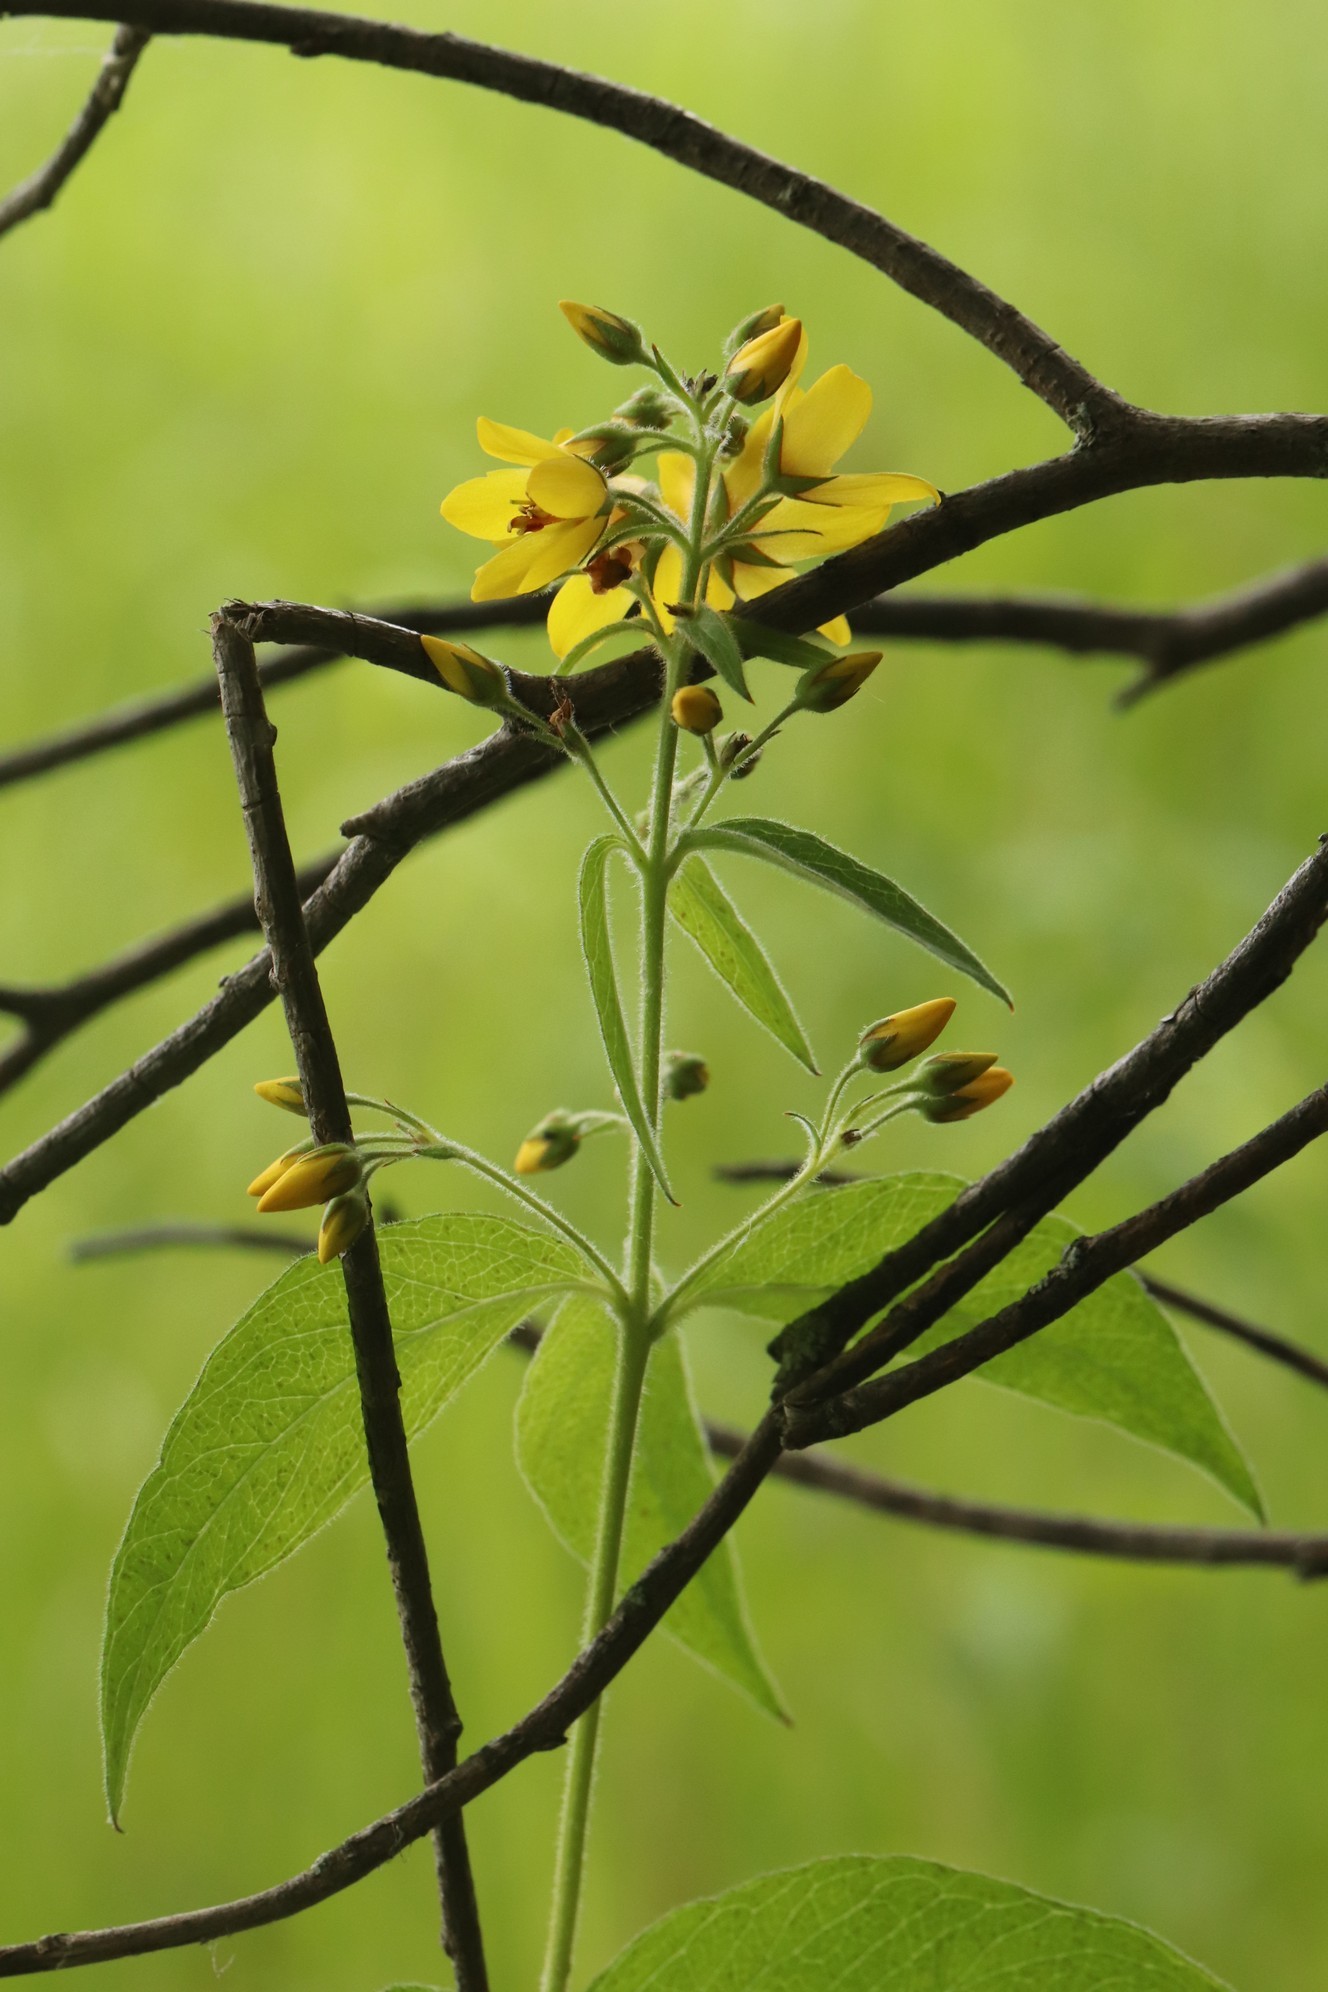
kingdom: Plantae
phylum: Tracheophyta
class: Magnoliopsida
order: Ericales
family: Primulaceae
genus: Lysimachia
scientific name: Lysimachia vulgaris
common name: Yellow loosestrife
